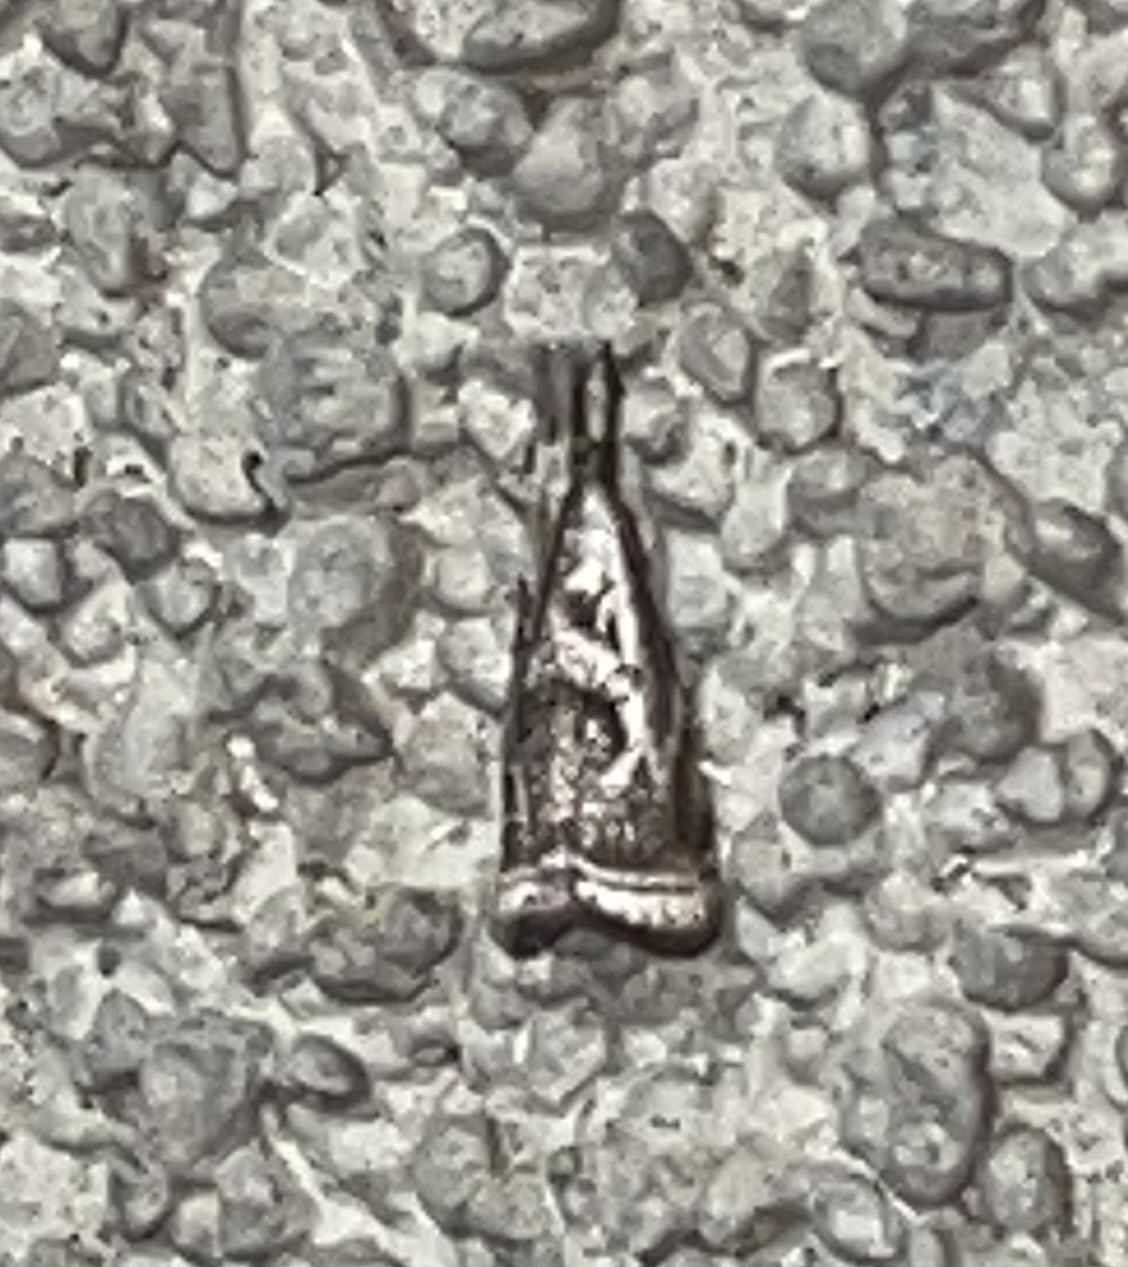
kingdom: Animalia
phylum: Arthropoda
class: Insecta
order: Lepidoptera
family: Crambidae
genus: Microcrambus
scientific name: Microcrambus elegans
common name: Elegant grass-veneer
